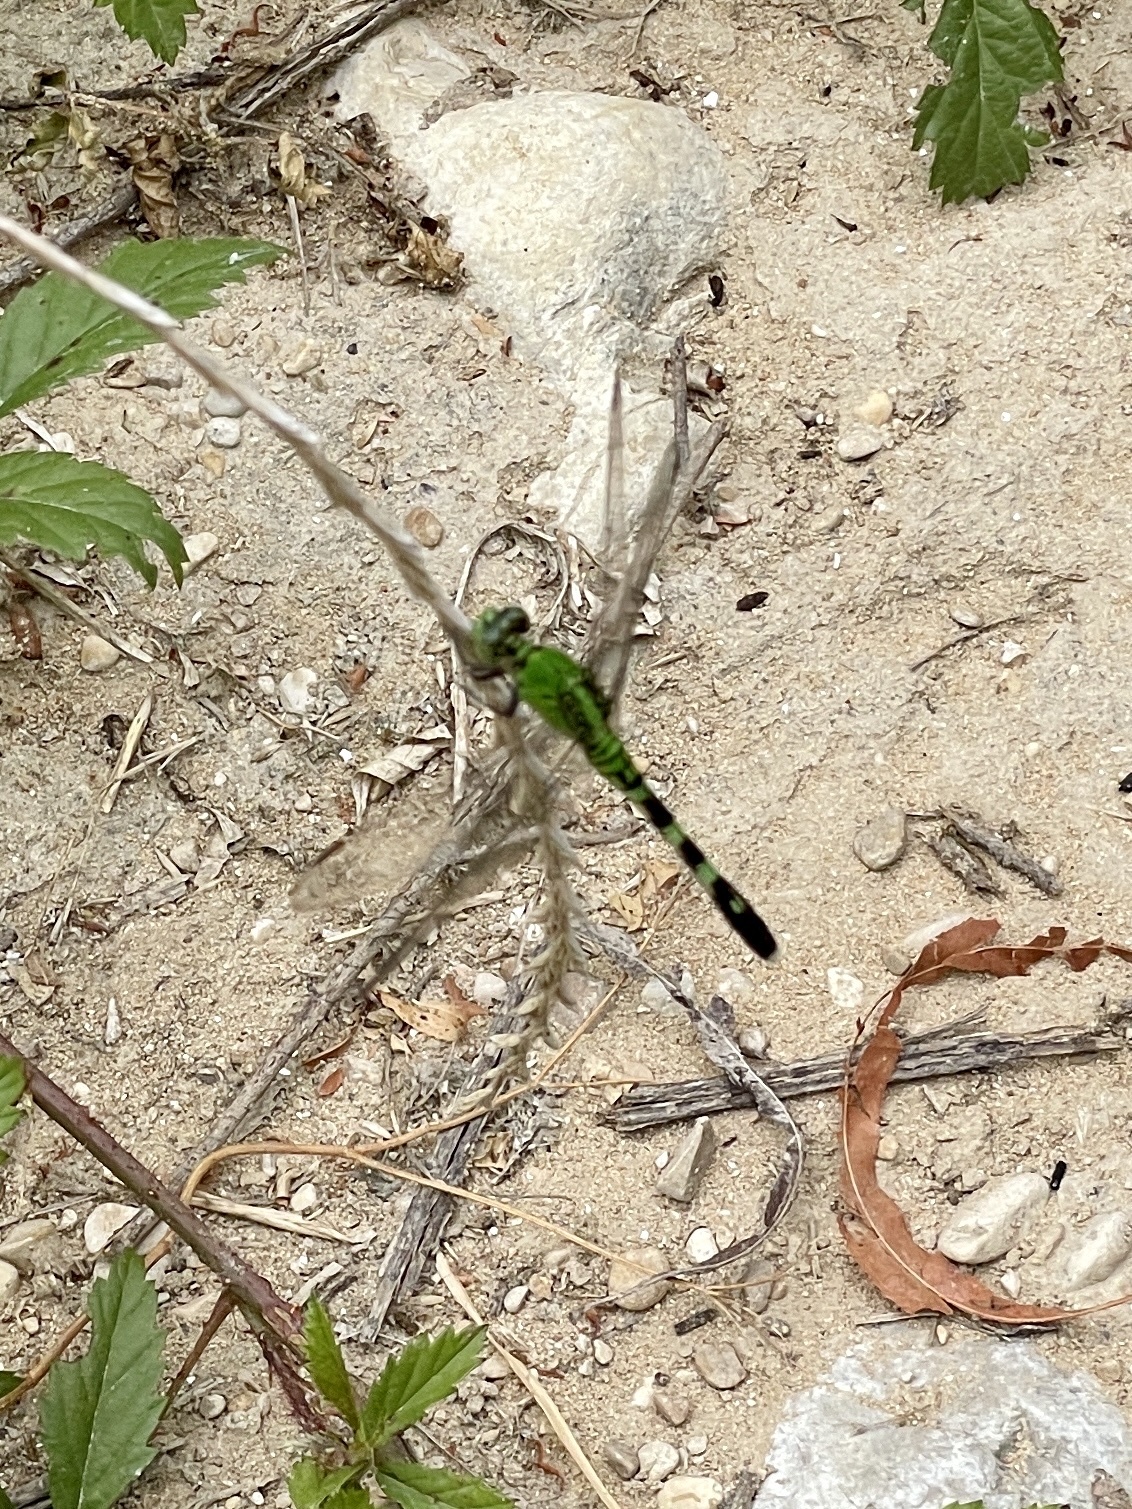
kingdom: Animalia
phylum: Arthropoda
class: Insecta
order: Odonata
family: Libellulidae
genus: Erythemis
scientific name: Erythemis simplicicollis
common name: Eastern pondhawk
